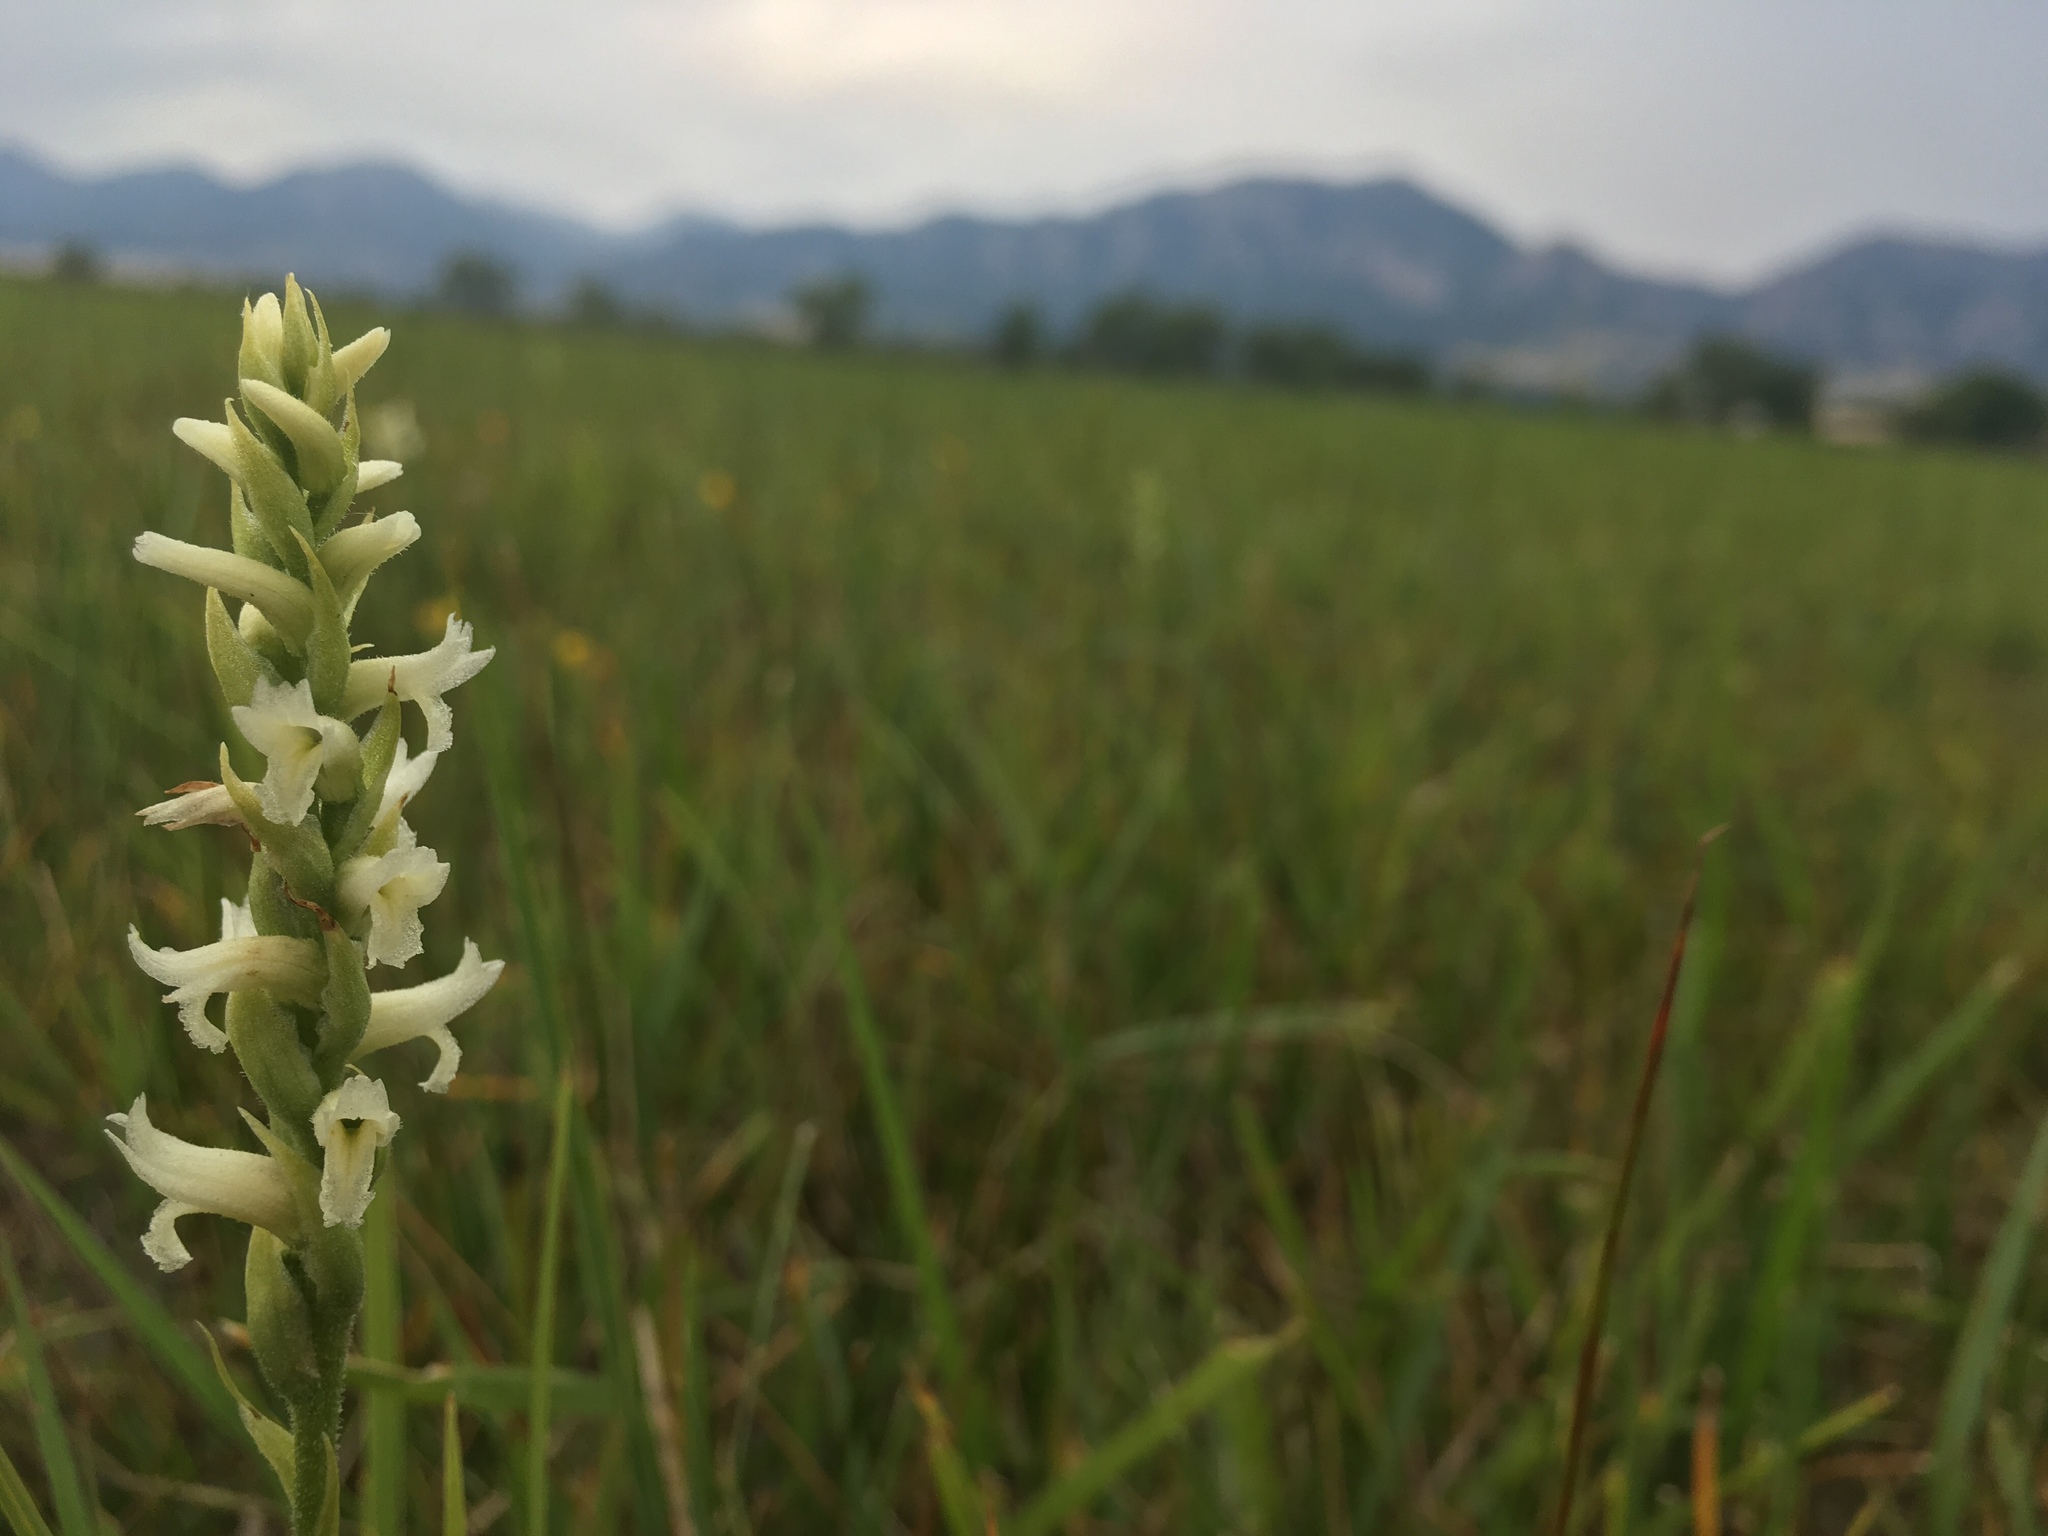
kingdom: Plantae
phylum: Tracheophyta
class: Liliopsida
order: Asparagales
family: Orchidaceae
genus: Spiranthes
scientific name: Spiranthes diluvialis
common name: Ute ladies'-tresses
